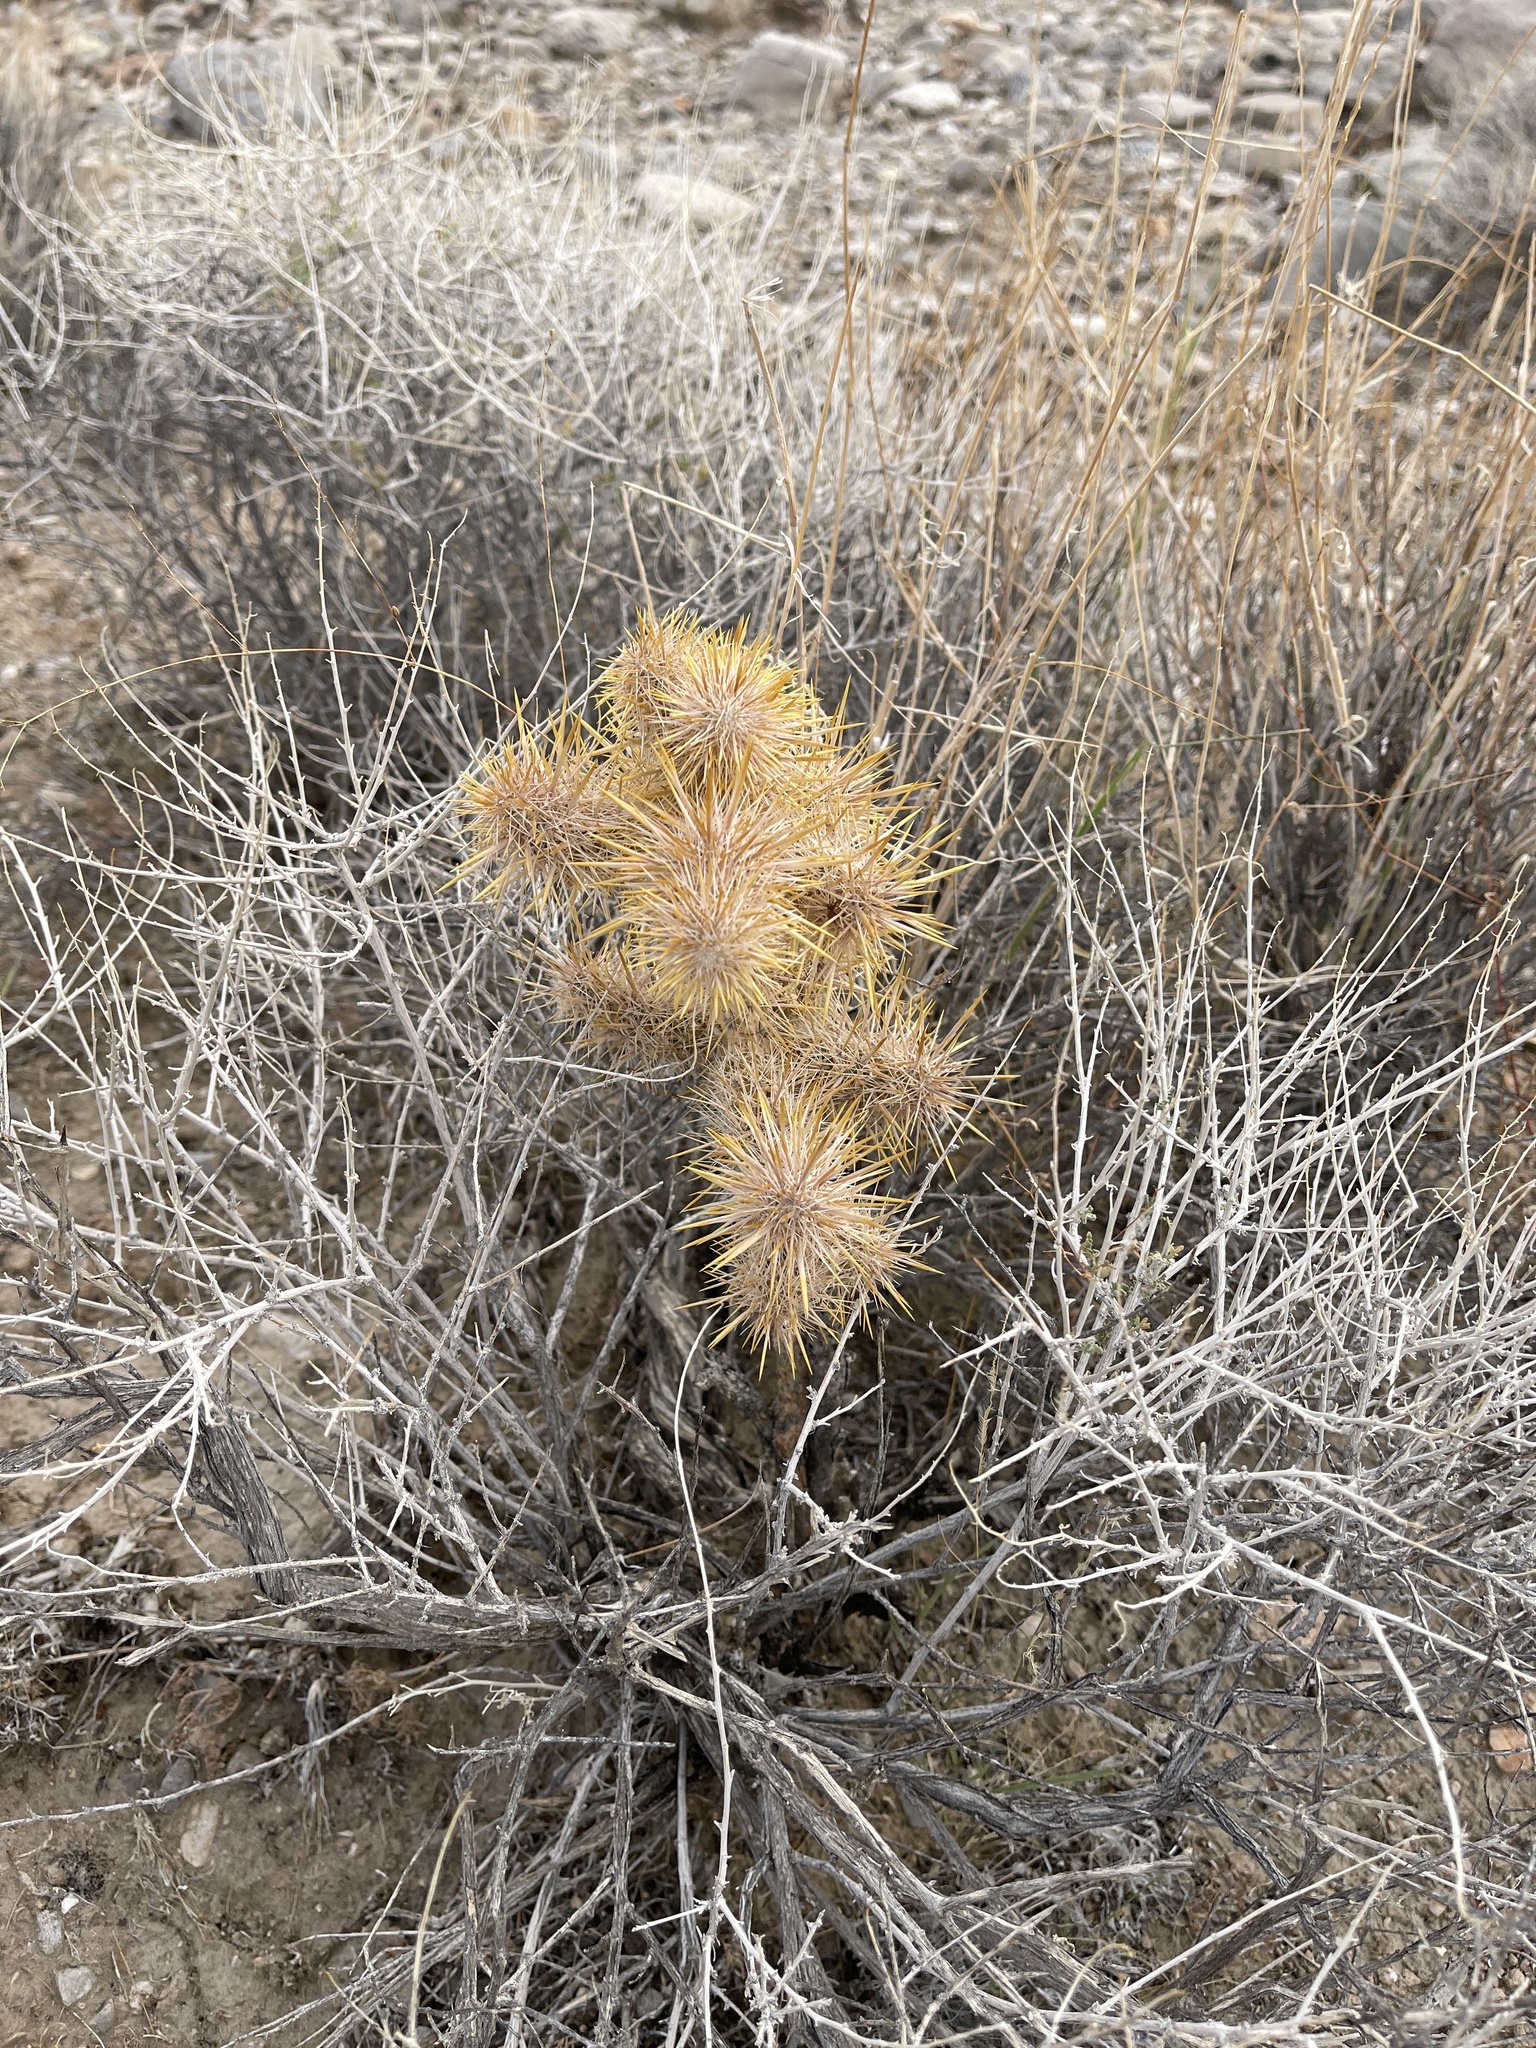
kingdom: Plantae
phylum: Tracheophyta
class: Magnoliopsida
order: Caryophyllales
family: Cactaceae
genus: Cylindropuntia
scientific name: Cylindropuntia echinocarpa
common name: Ground cholla
